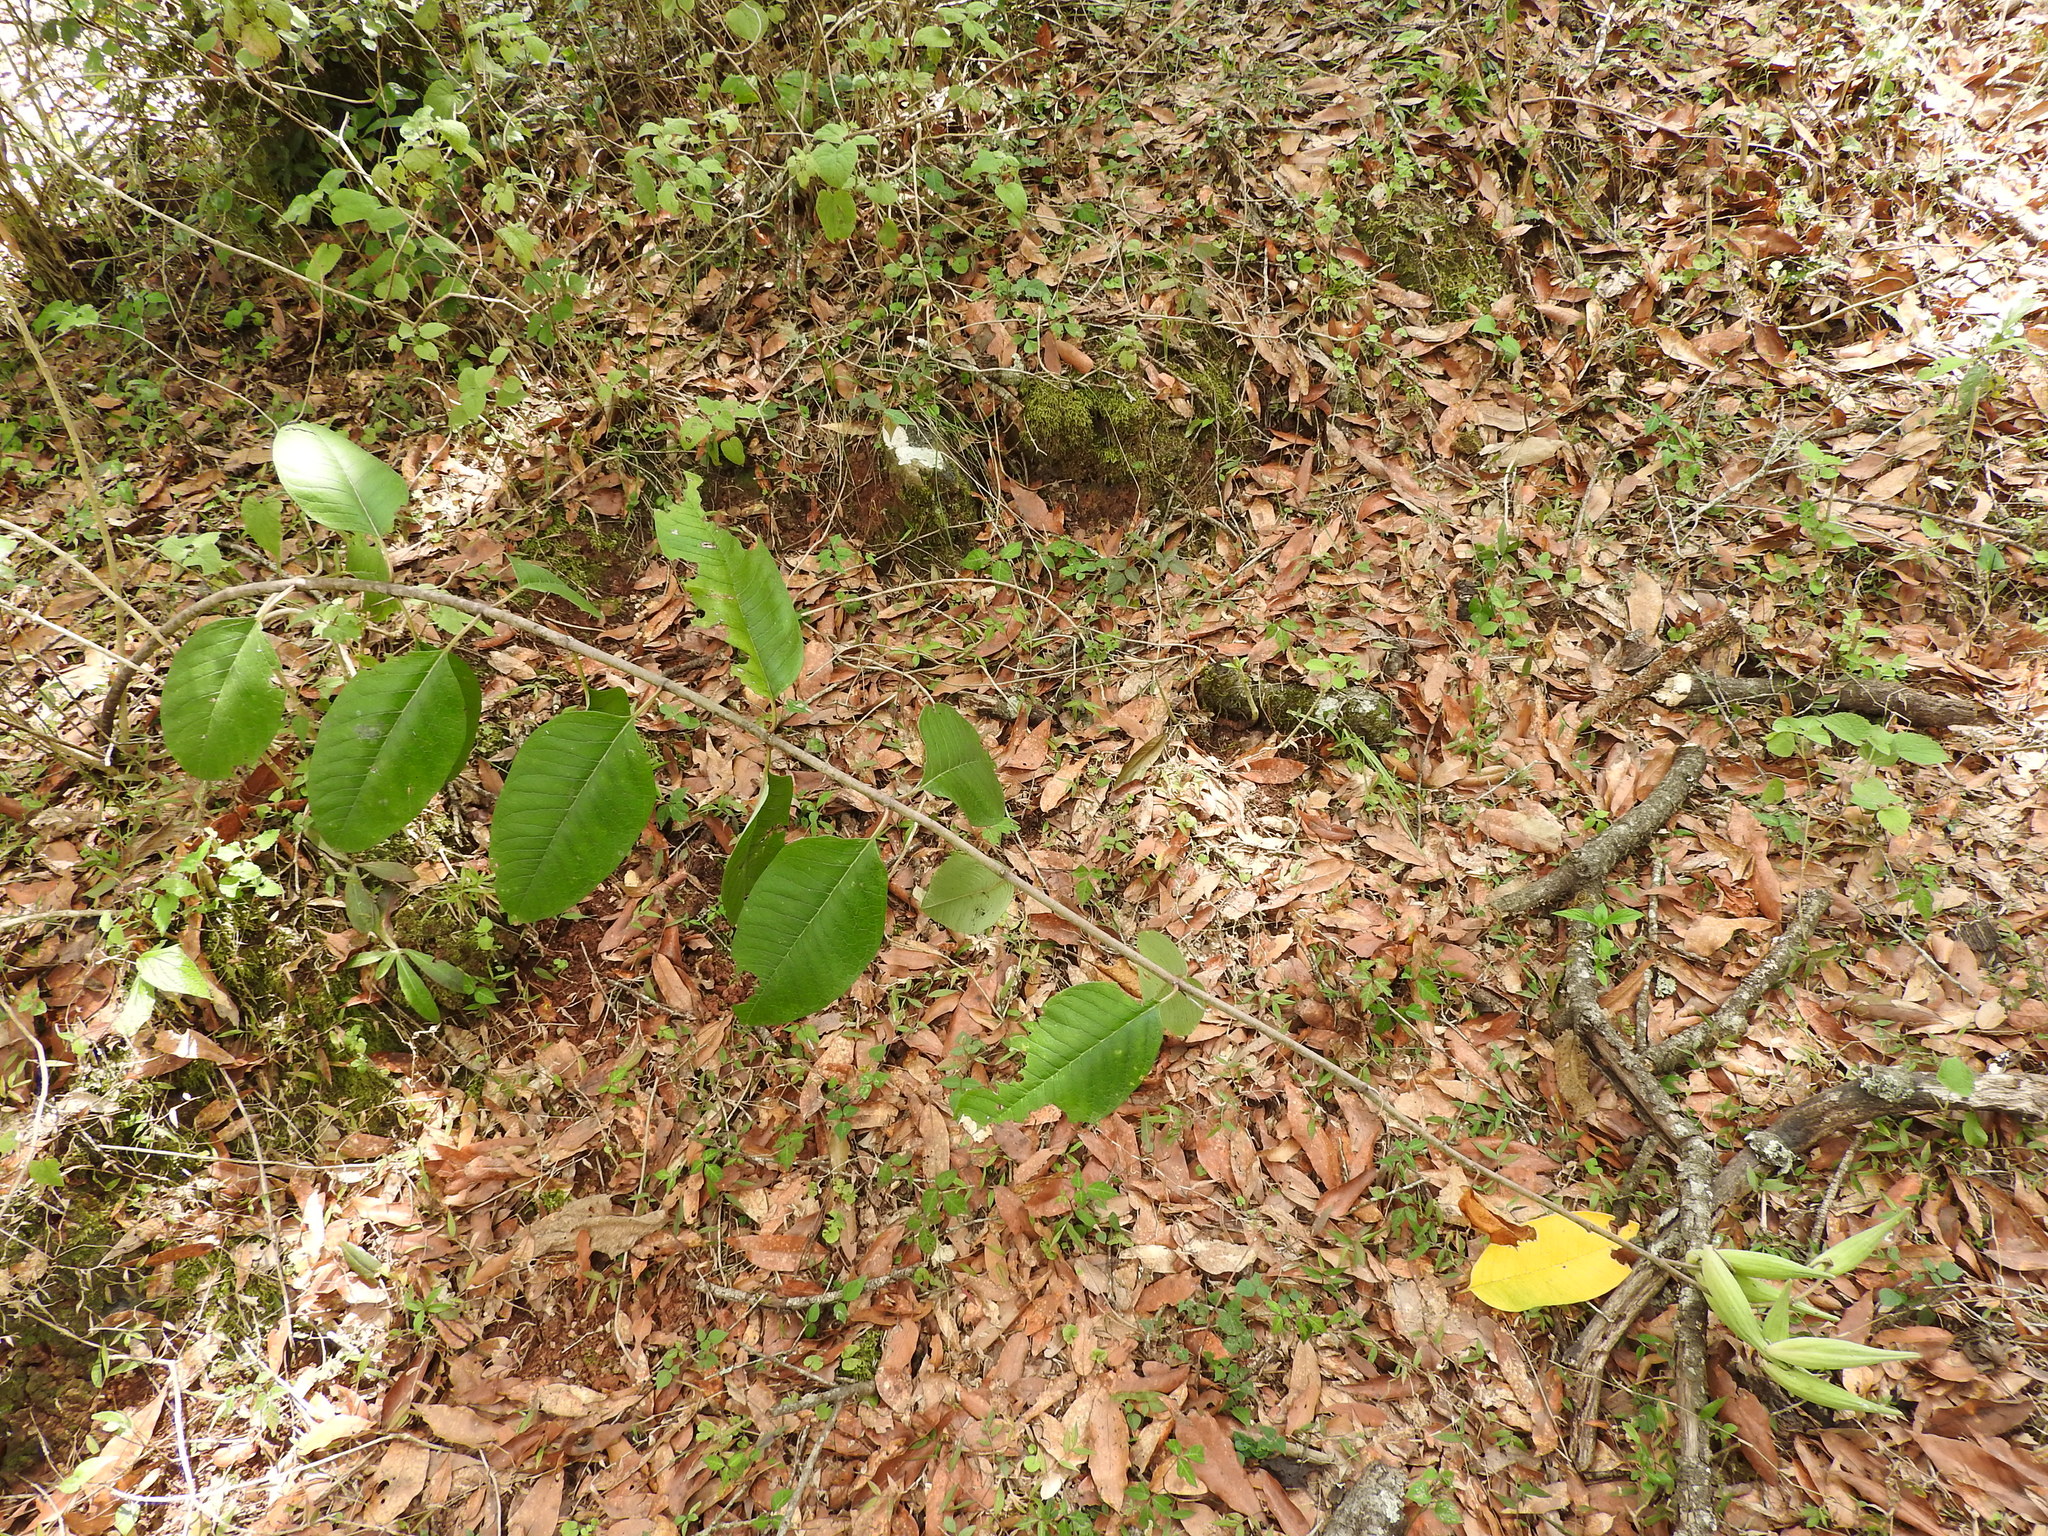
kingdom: Plantae
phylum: Tracheophyta
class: Magnoliopsida
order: Gentianales
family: Apocynaceae
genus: Asclepias
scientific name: Asclepias similis
